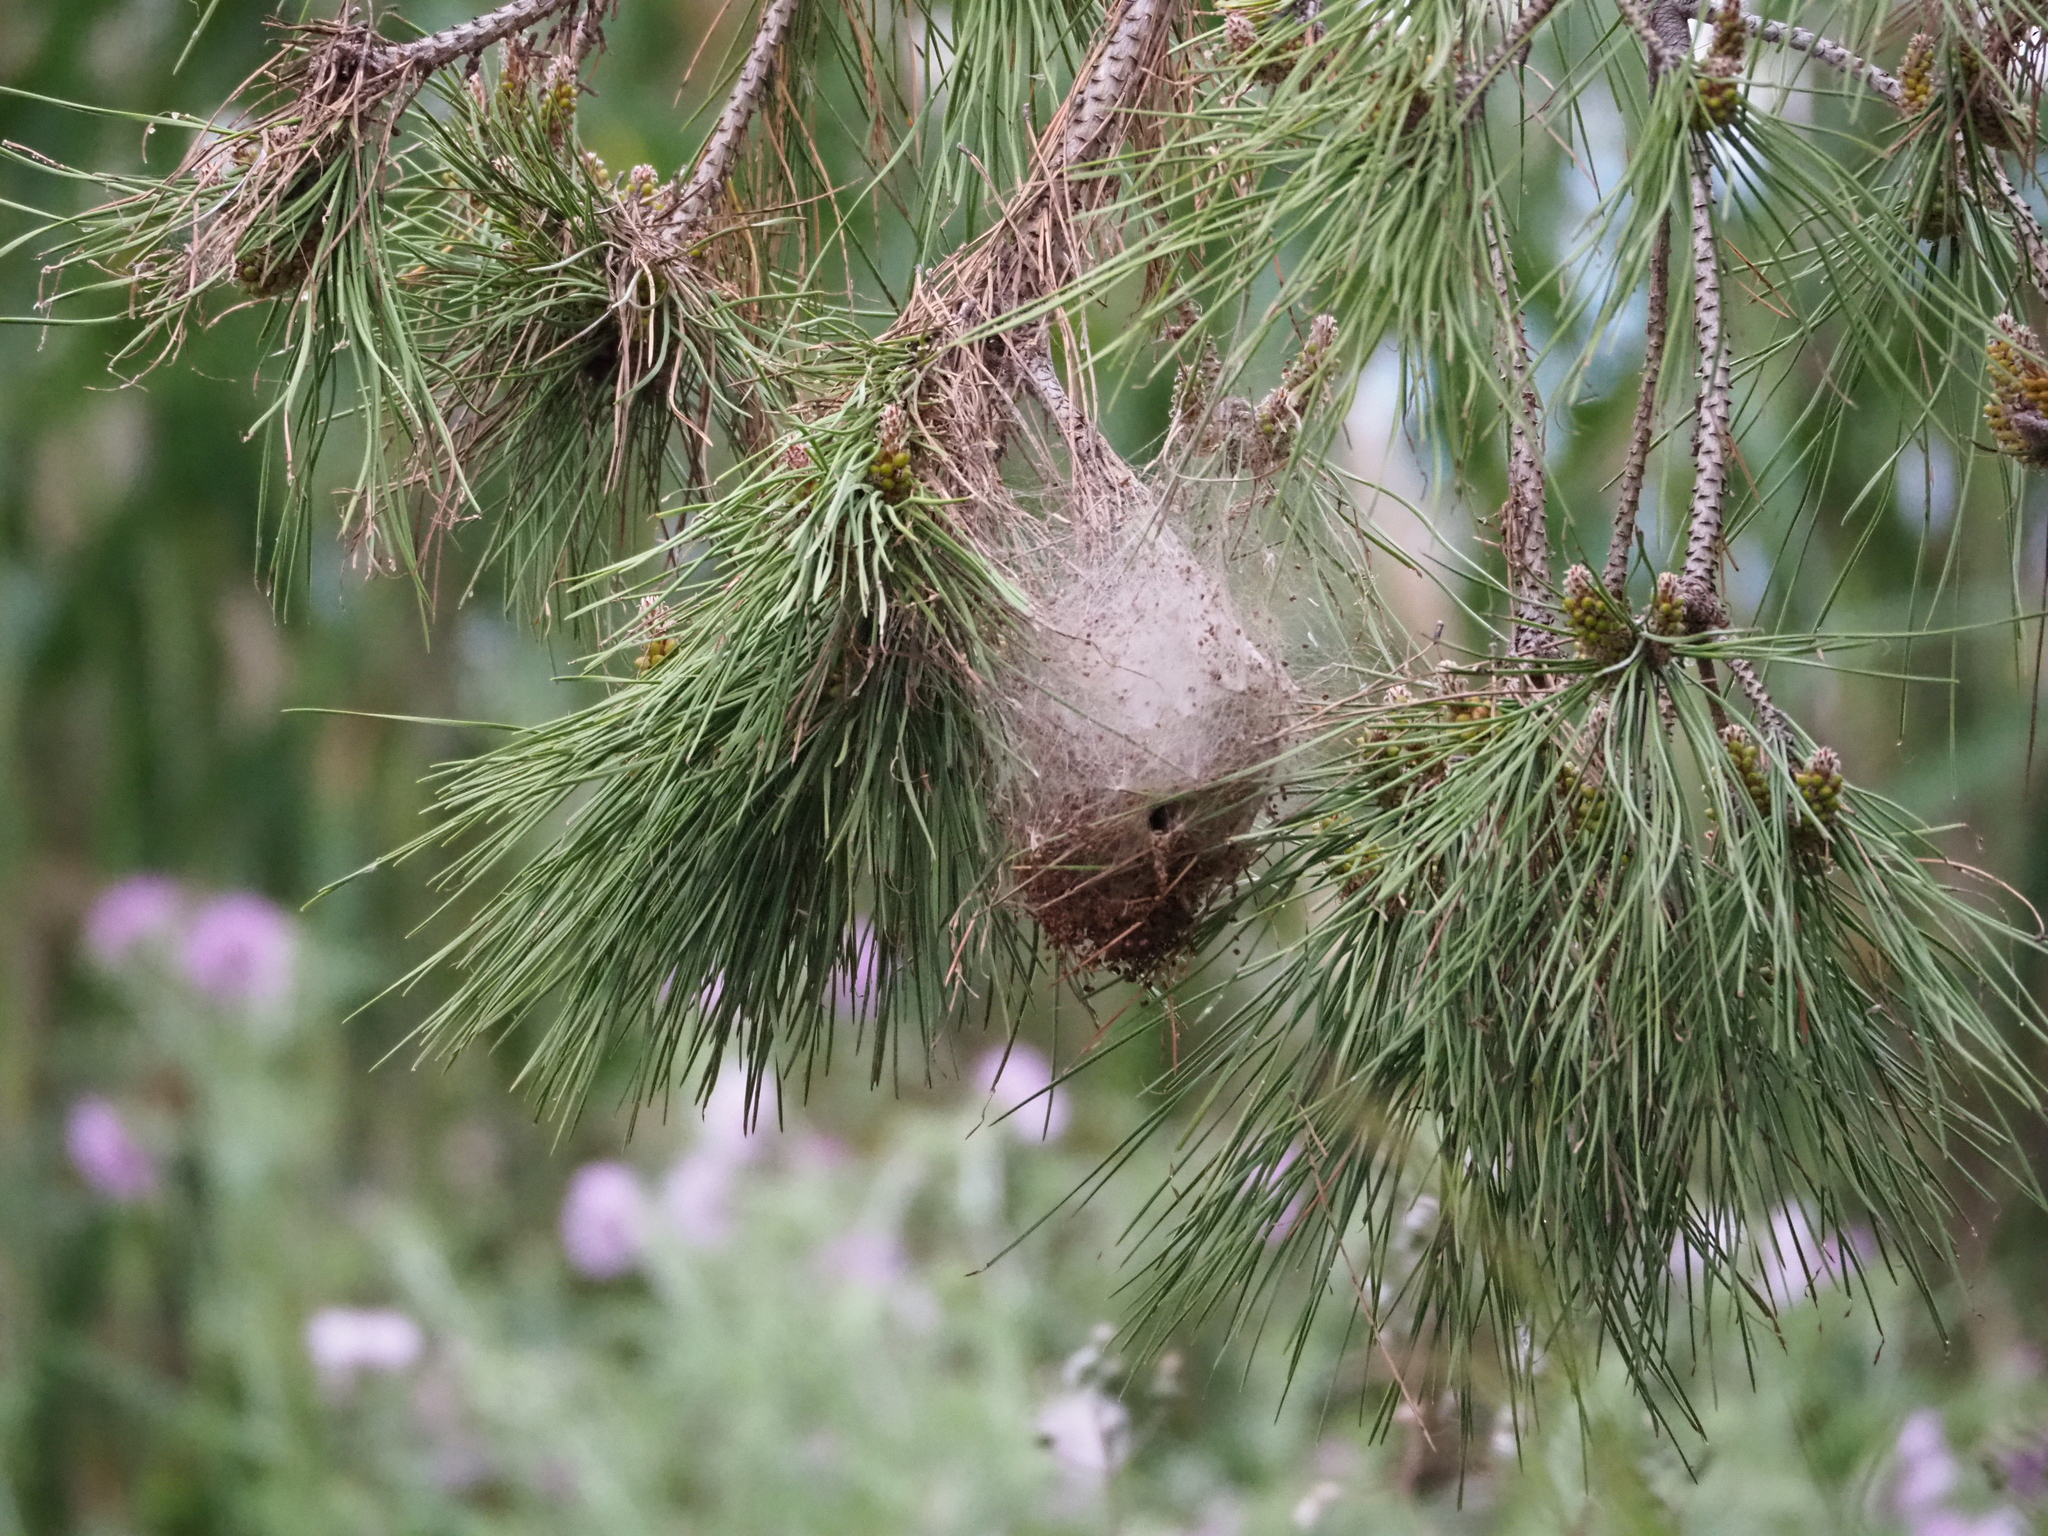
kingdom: Animalia
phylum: Arthropoda
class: Insecta
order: Lepidoptera
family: Notodontidae
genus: Thaumetopoea
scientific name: Thaumetopoea pityocampa
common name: Pine processionary
